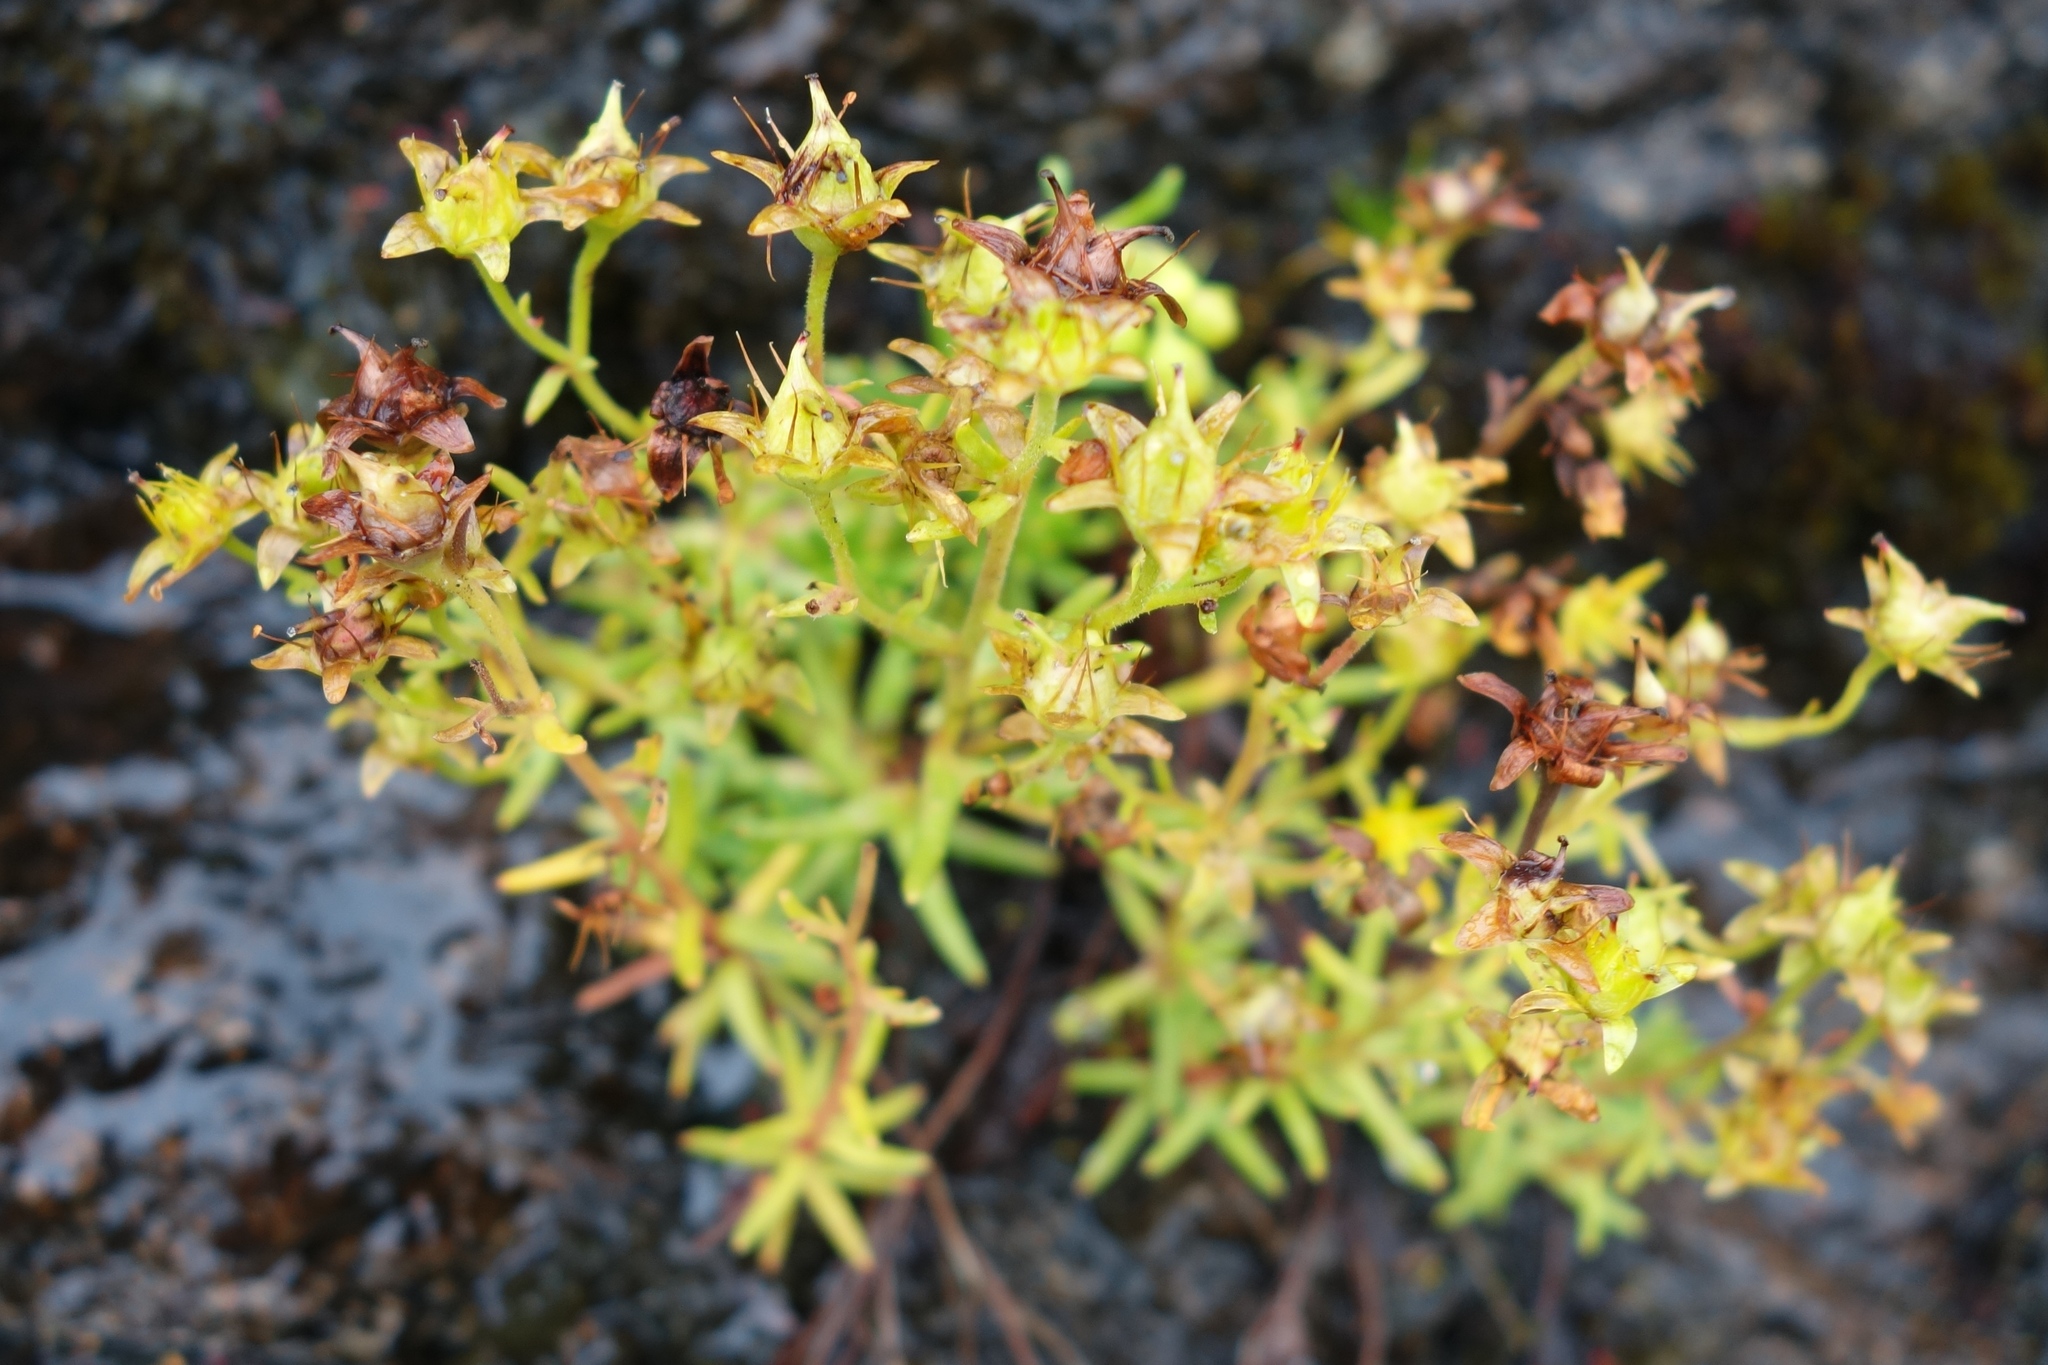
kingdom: Plantae
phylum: Tracheophyta
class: Magnoliopsida
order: Saxifragales
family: Saxifragaceae
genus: Saxifraga
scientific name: Saxifraga aizoides
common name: Yellow mountain saxifrage
